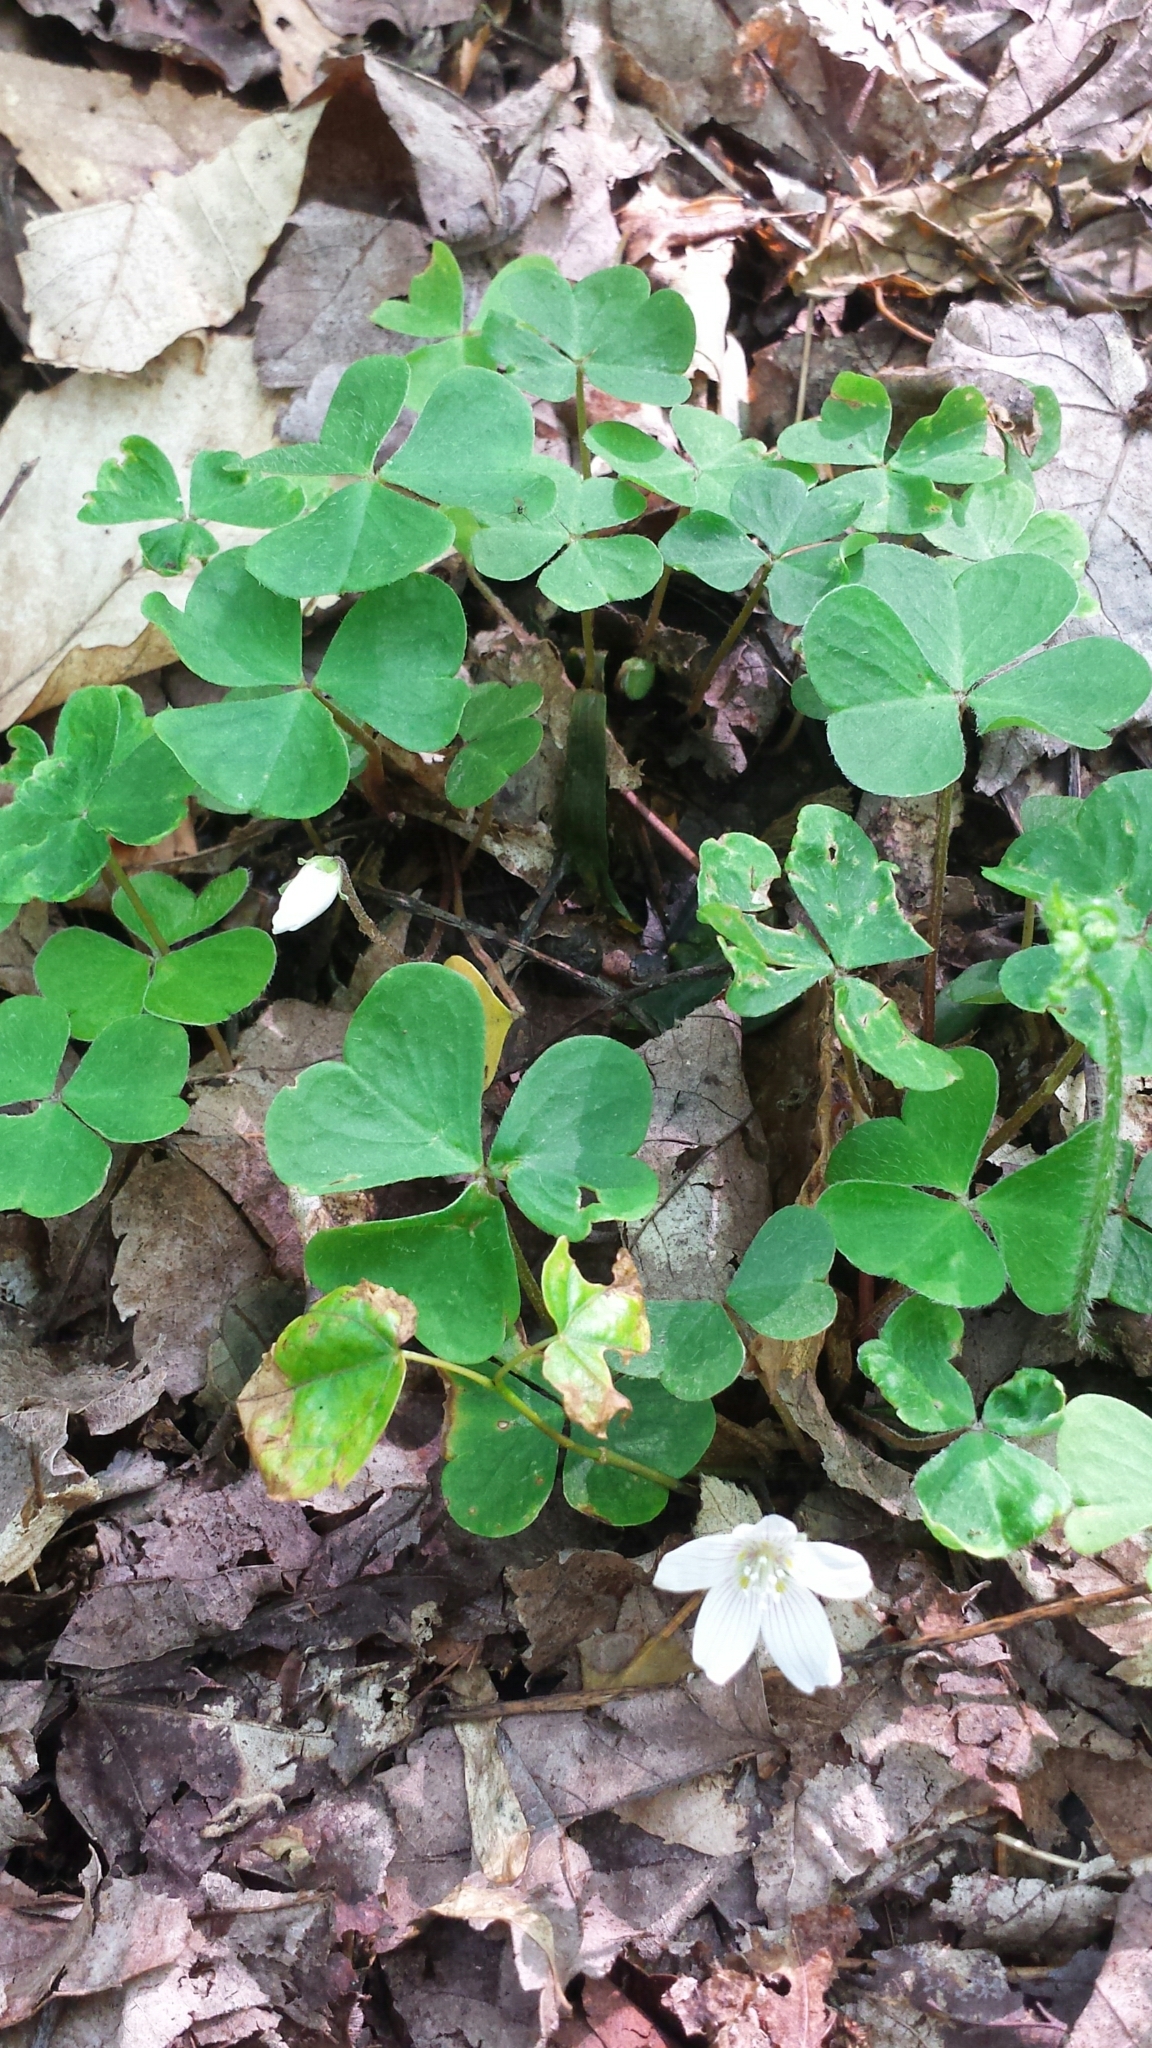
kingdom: Plantae
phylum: Tracheophyta
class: Magnoliopsida
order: Oxalidales
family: Oxalidaceae
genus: Oxalis
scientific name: Oxalis montana
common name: American wood-sorrel
